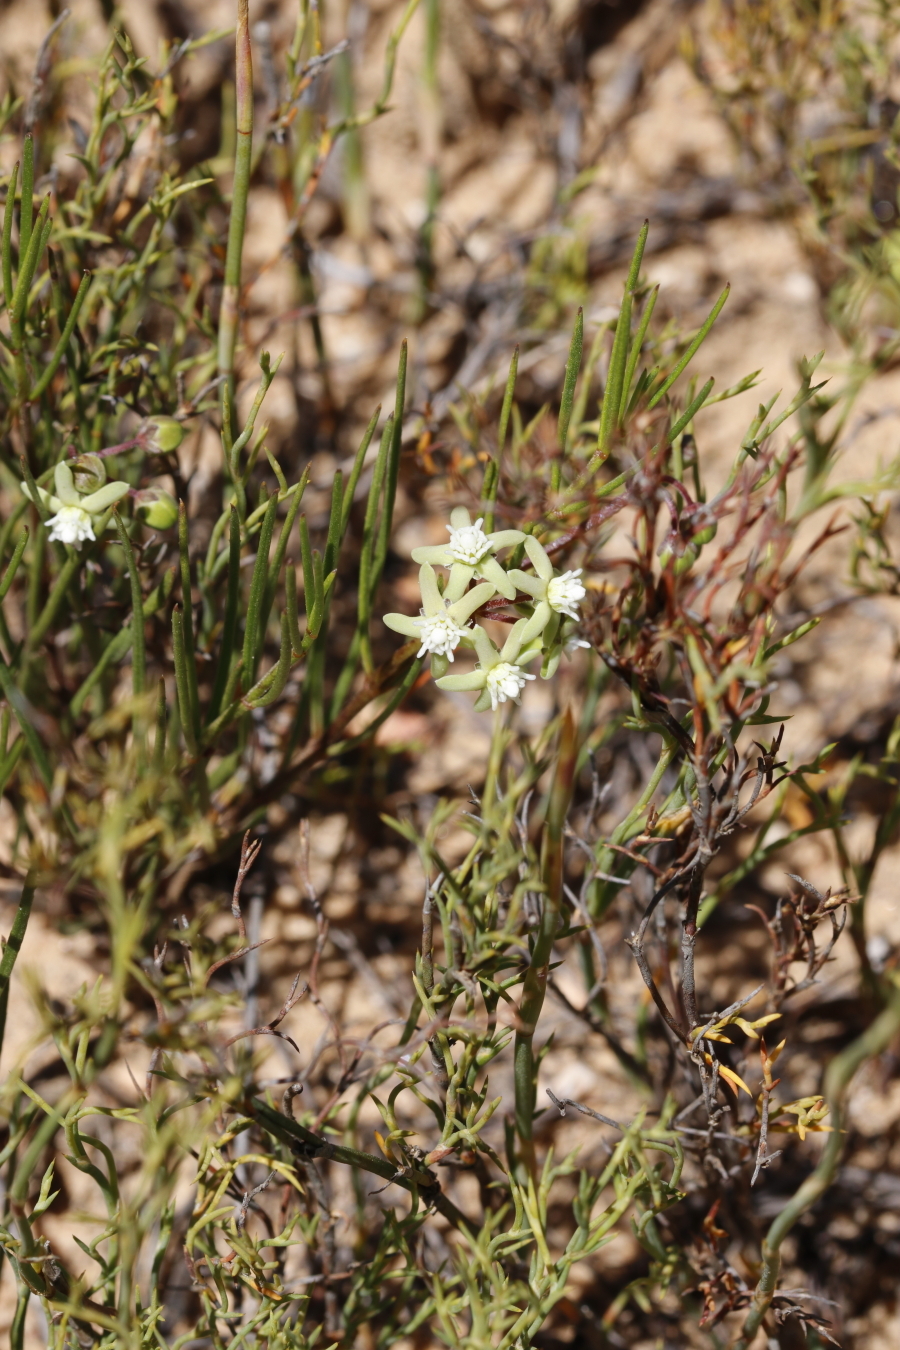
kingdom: Plantae
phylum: Tracheophyta
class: Magnoliopsida
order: Gentianales
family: Apocynaceae
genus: Eustegia
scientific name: Eustegia minuta
